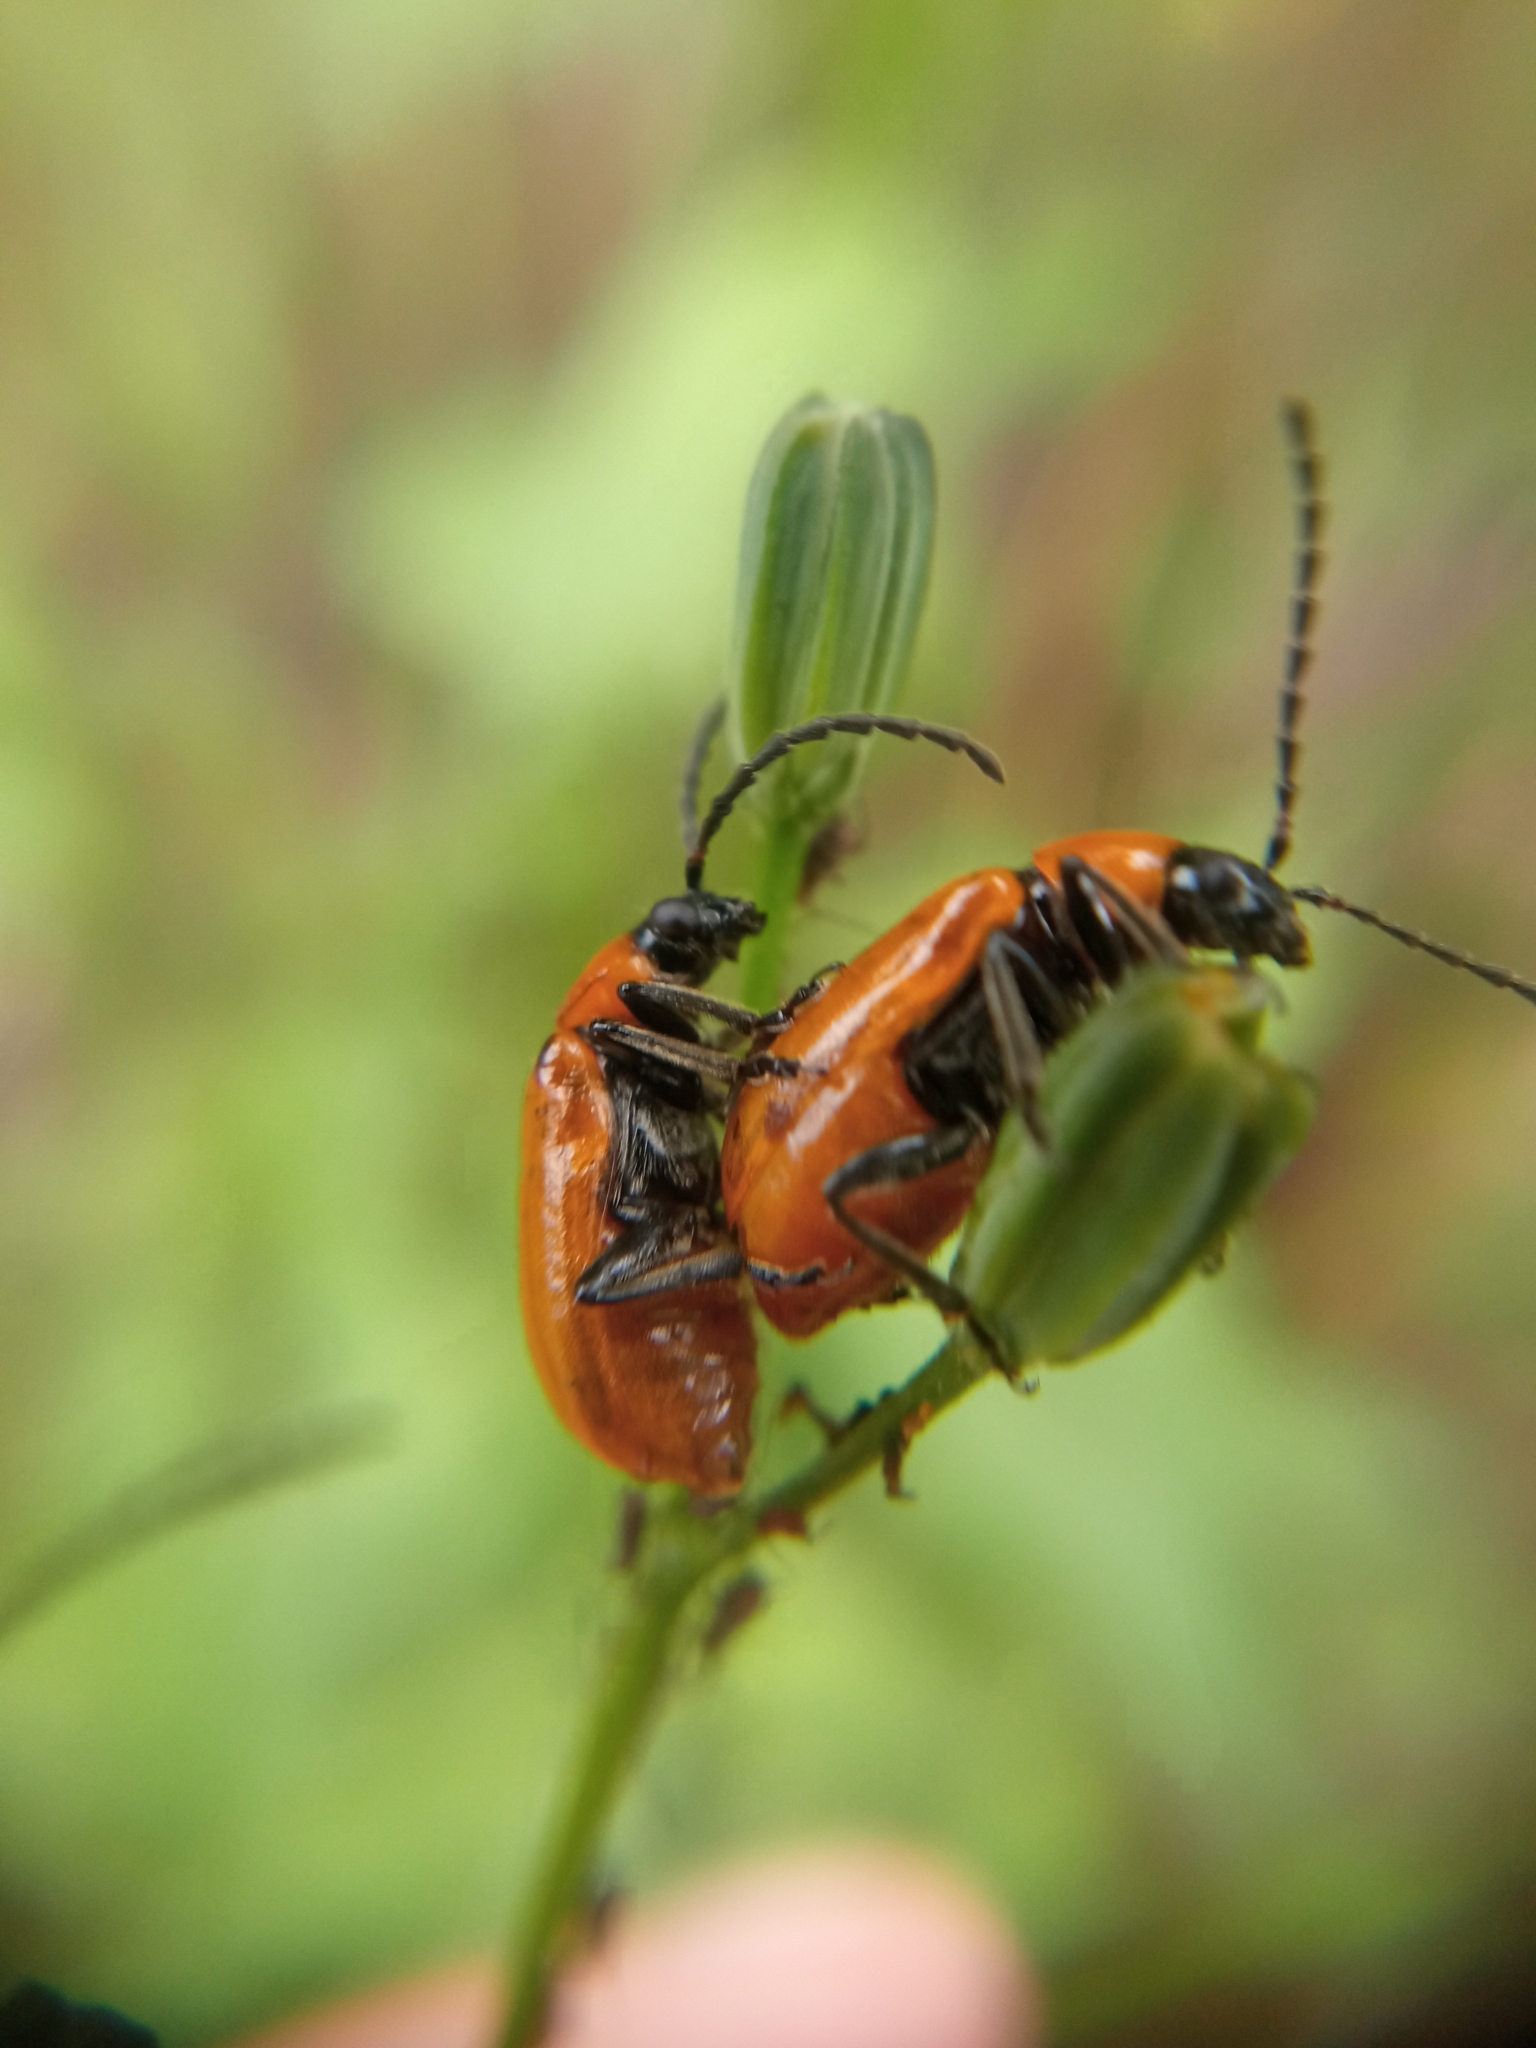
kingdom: Animalia
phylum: Arthropoda
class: Insecta
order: Coleoptera
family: Chrysomelidae
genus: Exosoma
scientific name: Exosoma lusitanicum
